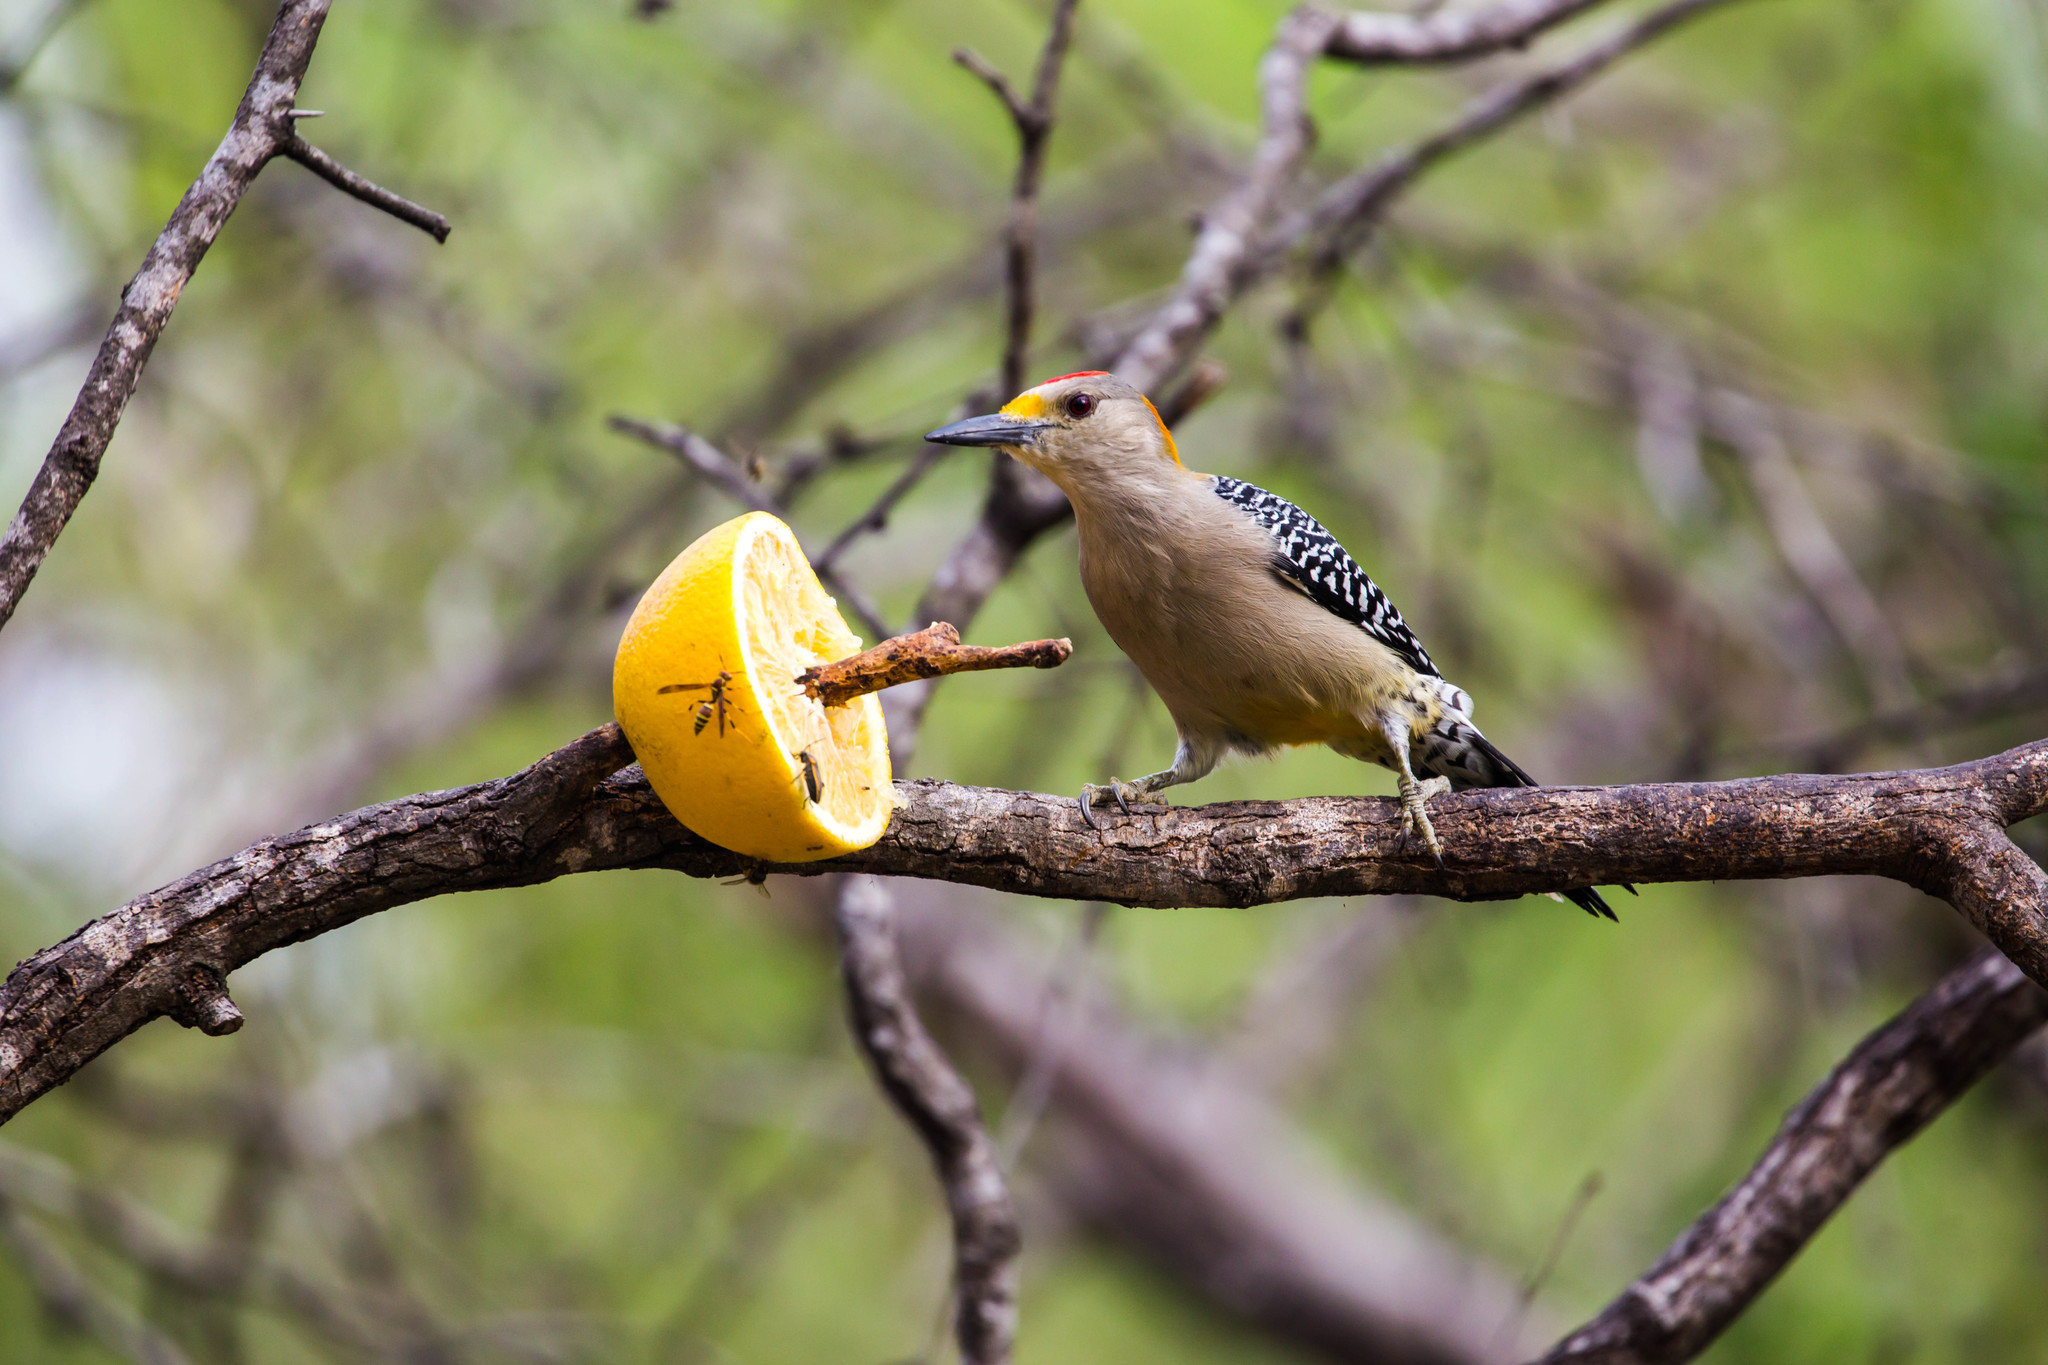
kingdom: Animalia
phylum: Chordata
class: Aves
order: Piciformes
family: Picidae
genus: Melanerpes
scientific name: Melanerpes aurifrons
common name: Golden-fronted woodpecker
